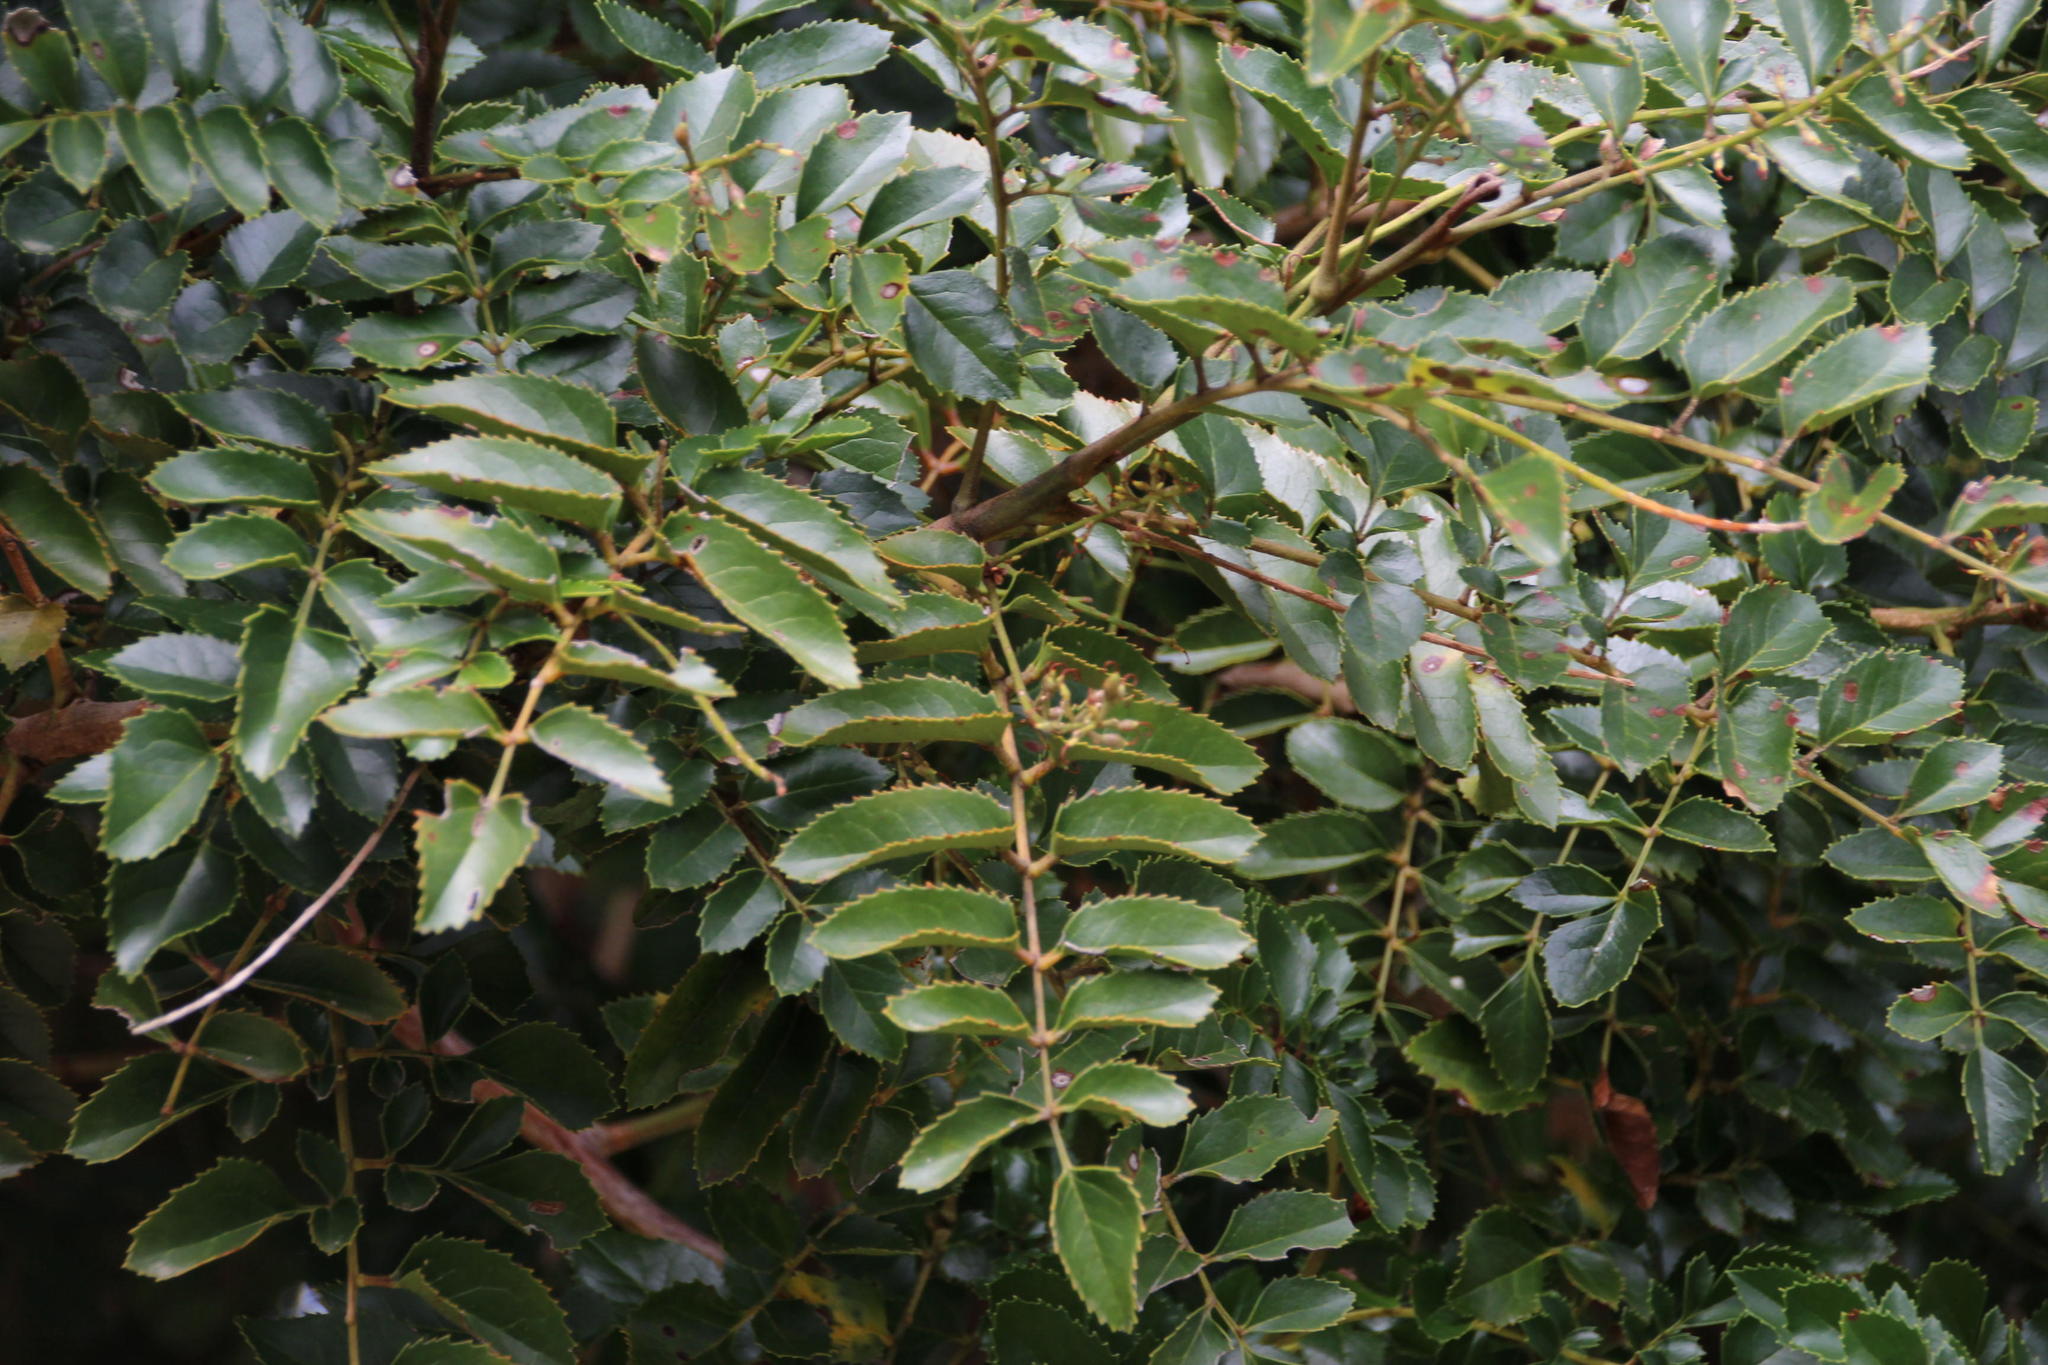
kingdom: Plantae
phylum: Tracheophyta
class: Magnoliopsida
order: Proteales
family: Proteaceae
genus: Gevuina
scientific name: Gevuina avellana
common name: Chilean hazel
